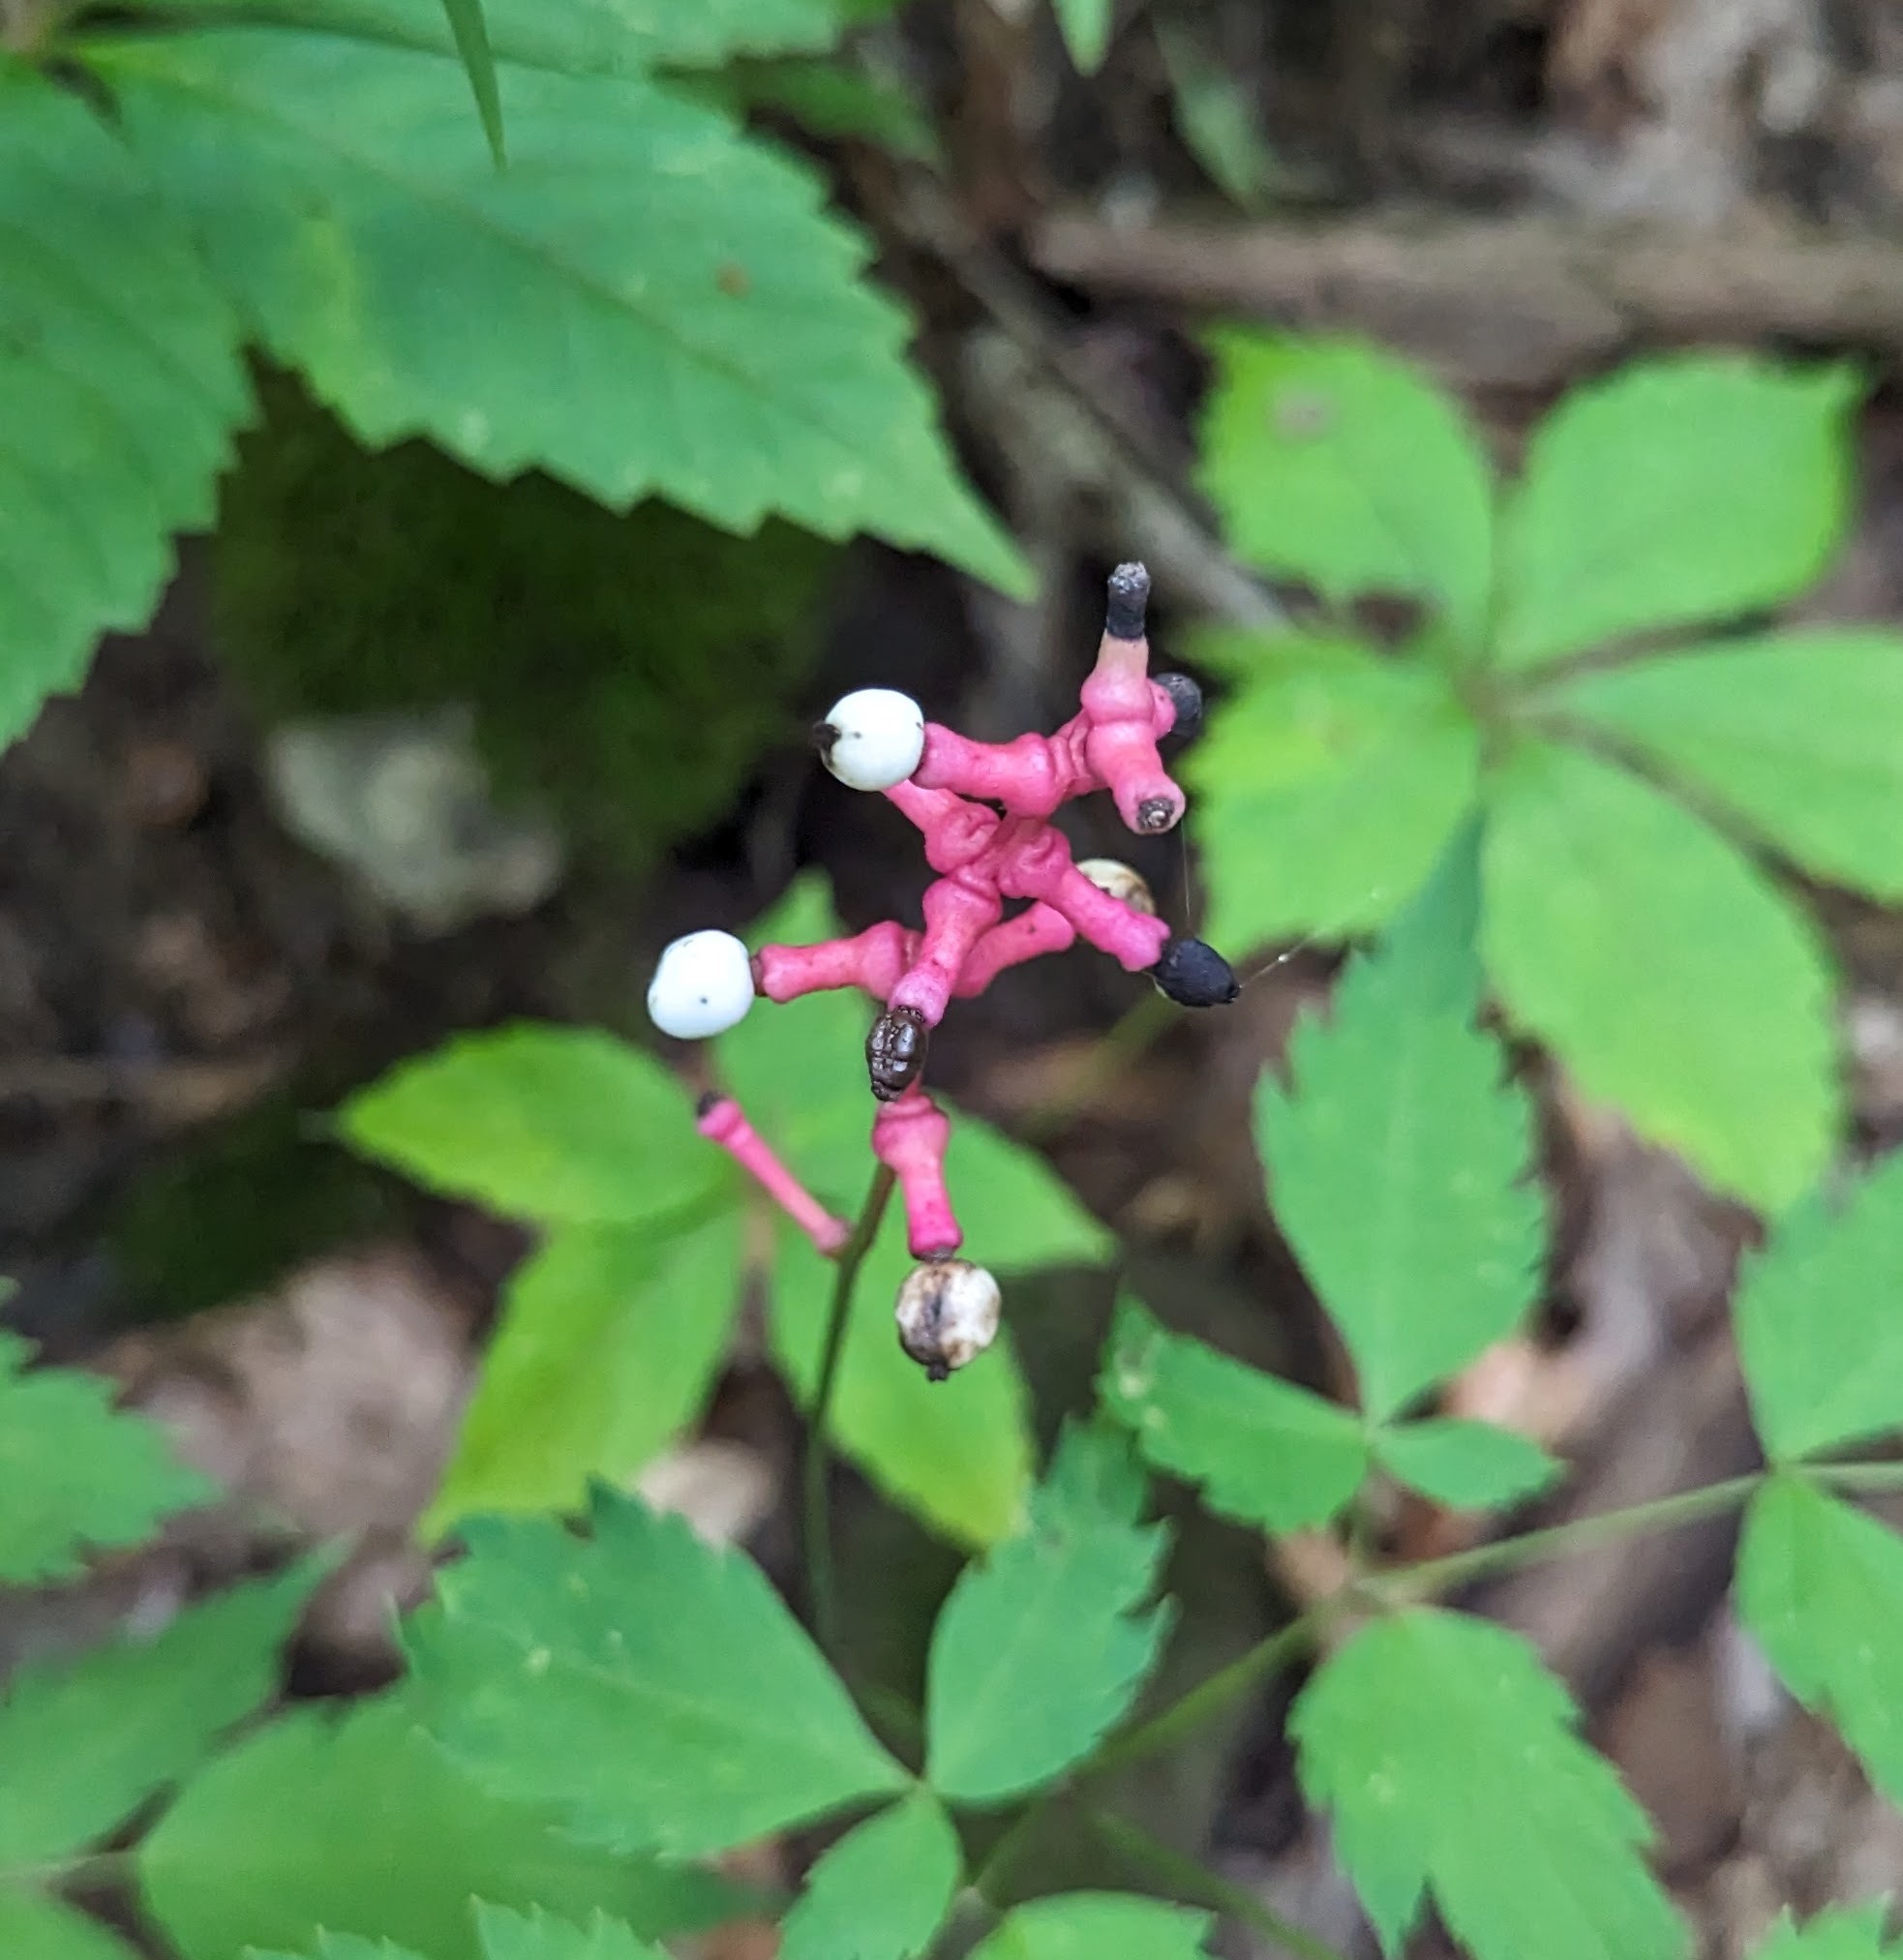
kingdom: Plantae
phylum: Tracheophyta
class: Magnoliopsida
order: Ranunculales
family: Ranunculaceae
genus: Actaea
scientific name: Actaea pachypoda
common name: Doll's-eyes
